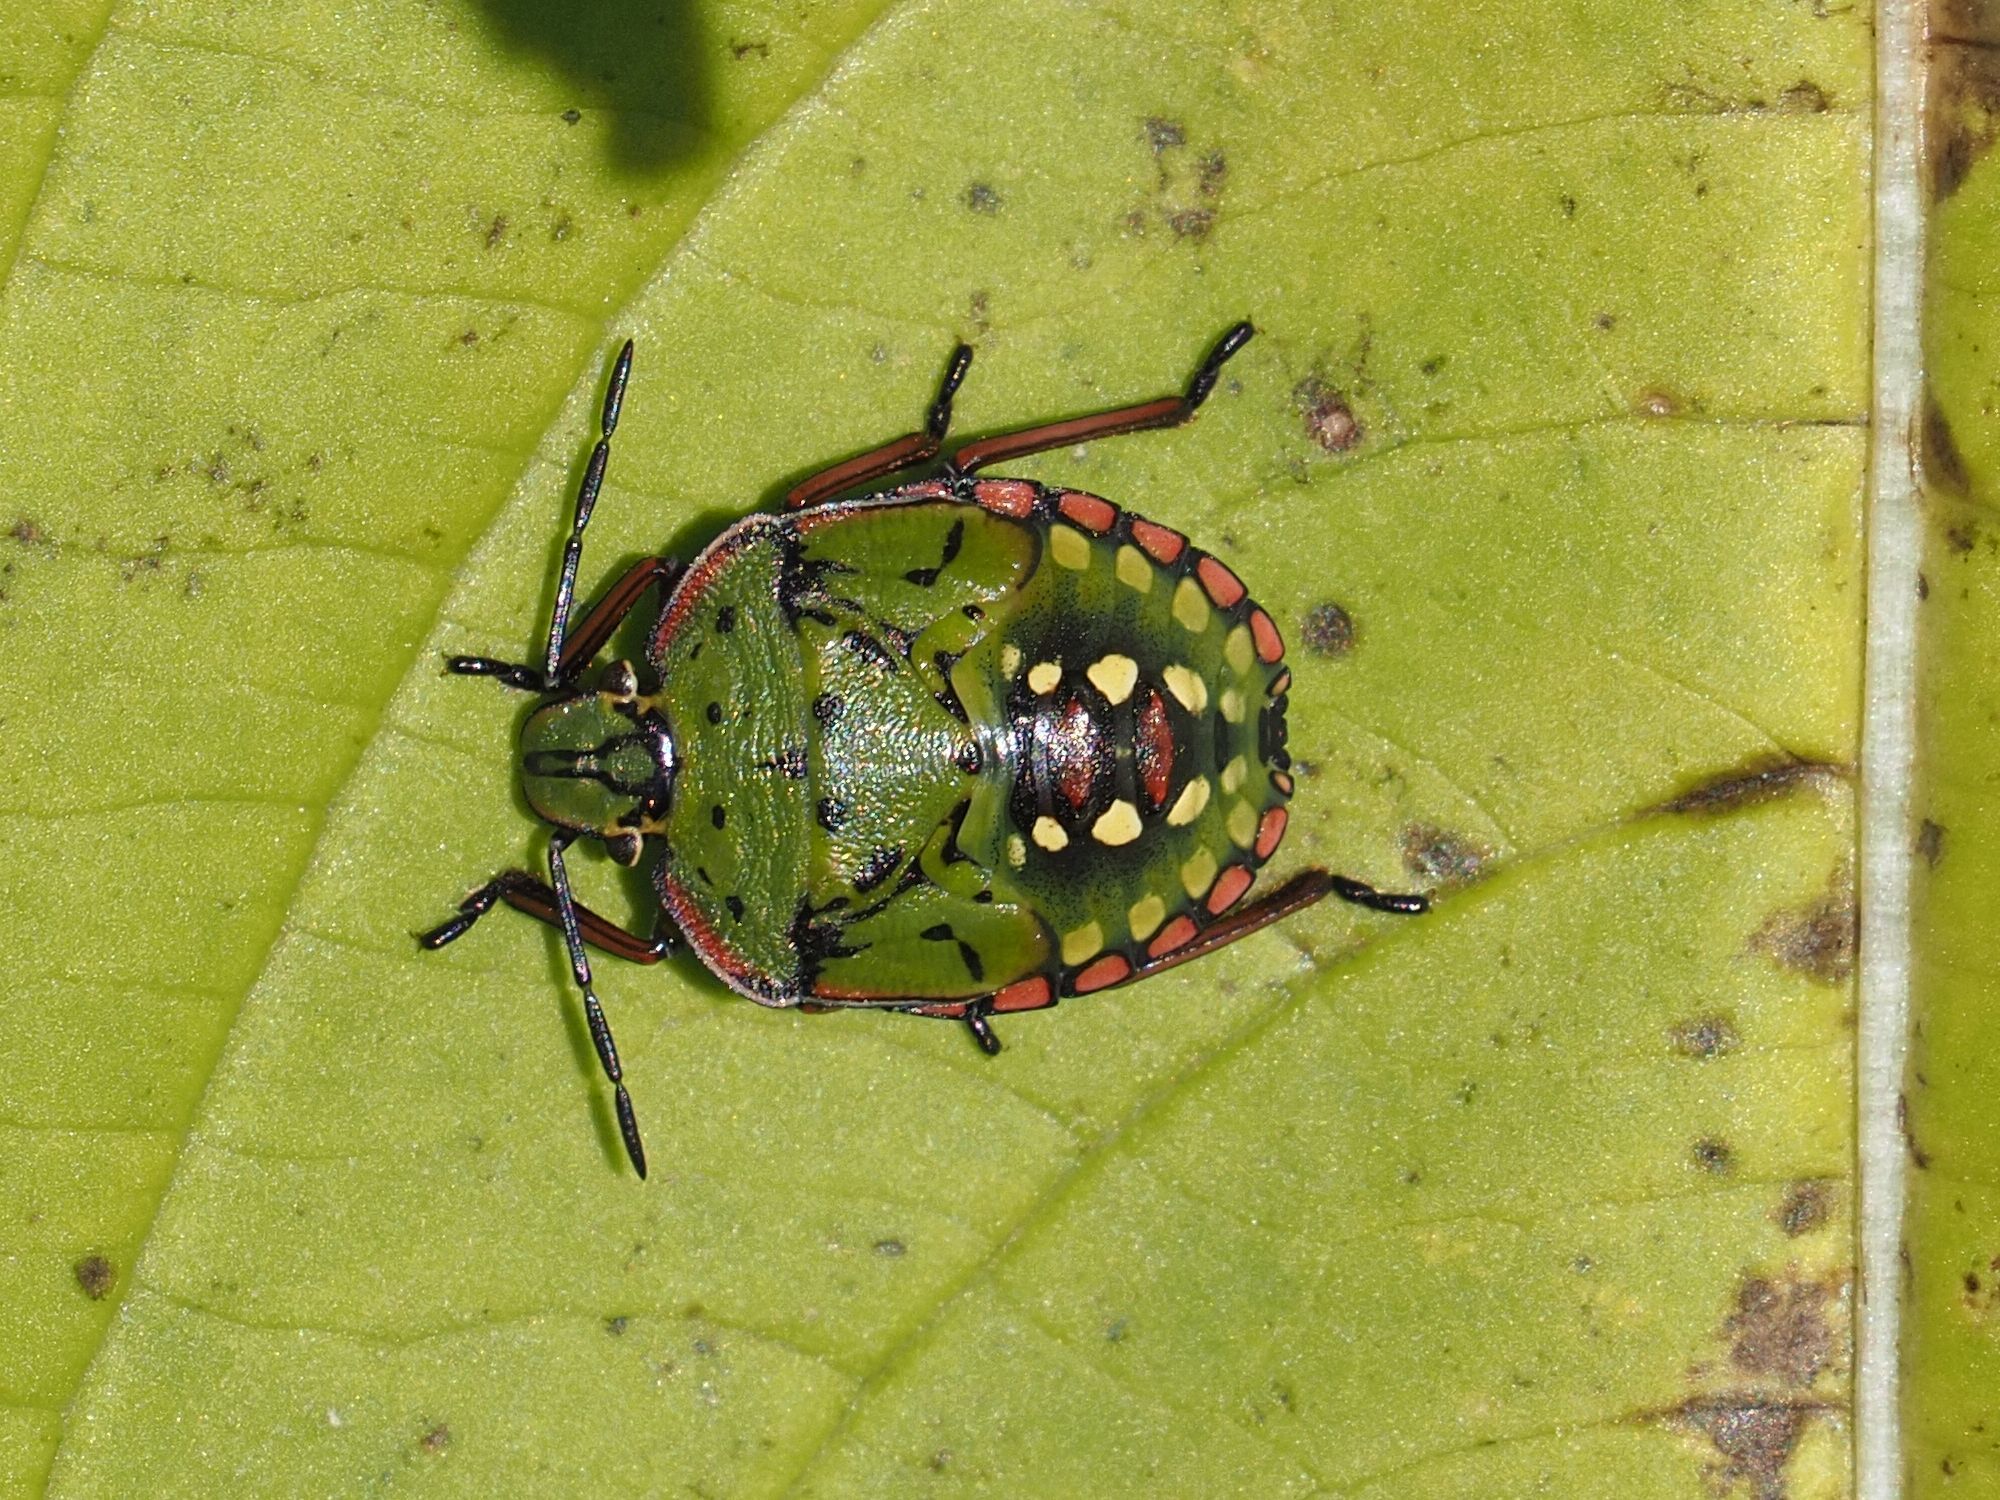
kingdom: Animalia
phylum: Arthropoda
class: Insecta
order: Hemiptera
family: Pentatomidae
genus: Nezara
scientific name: Nezara viridula
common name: Southern green stink bug
